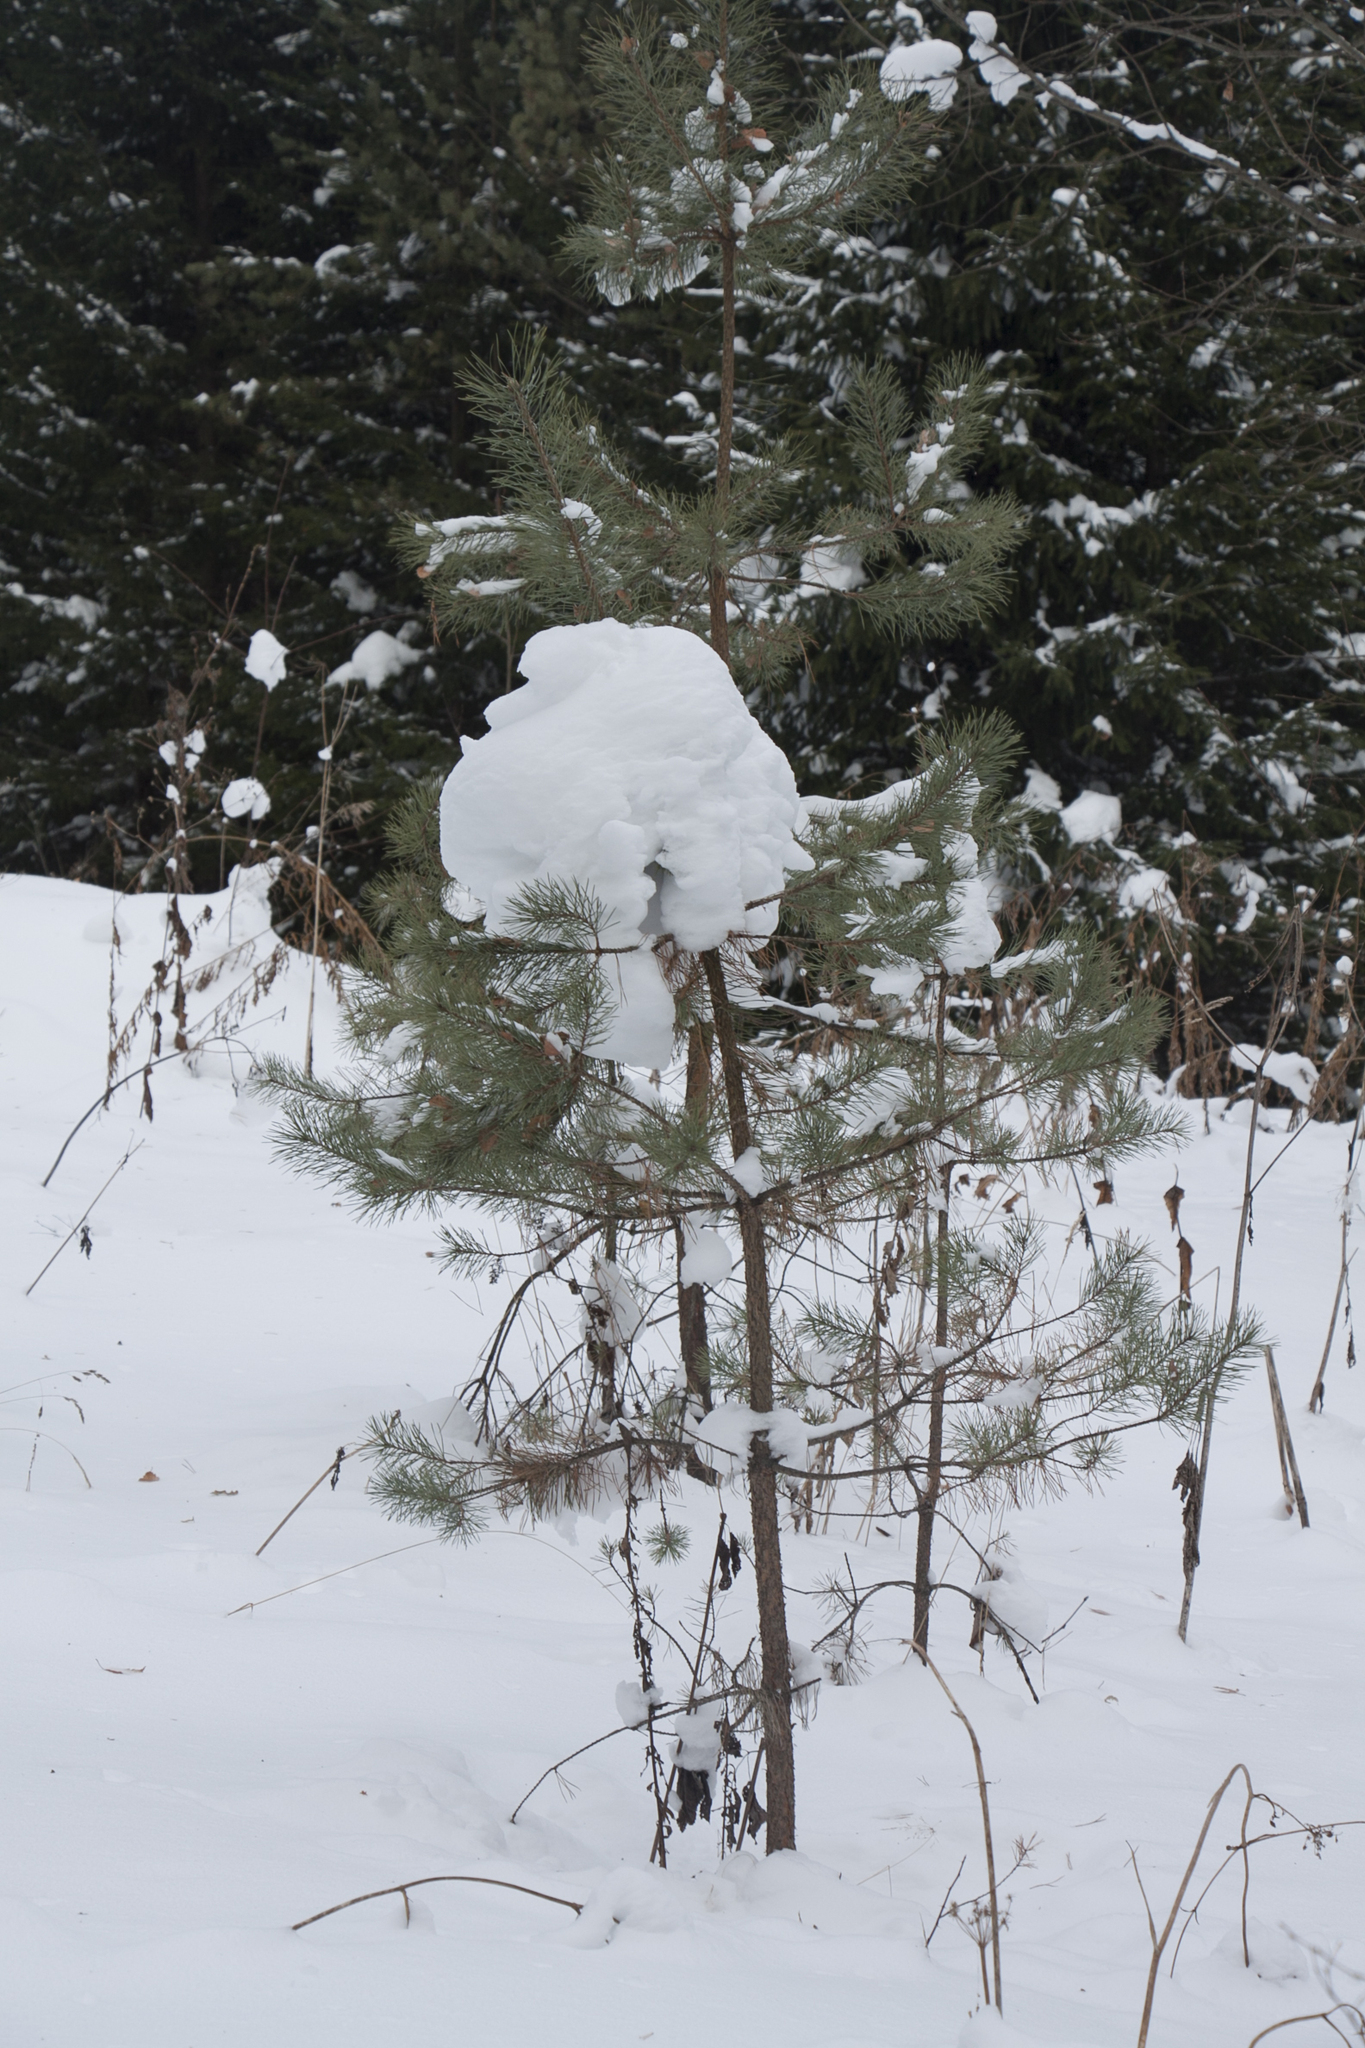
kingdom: Plantae
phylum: Tracheophyta
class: Pinopsida
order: Pinales
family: Pinaceae
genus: Pinus
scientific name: Pinus sylvestris
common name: Scots pine
